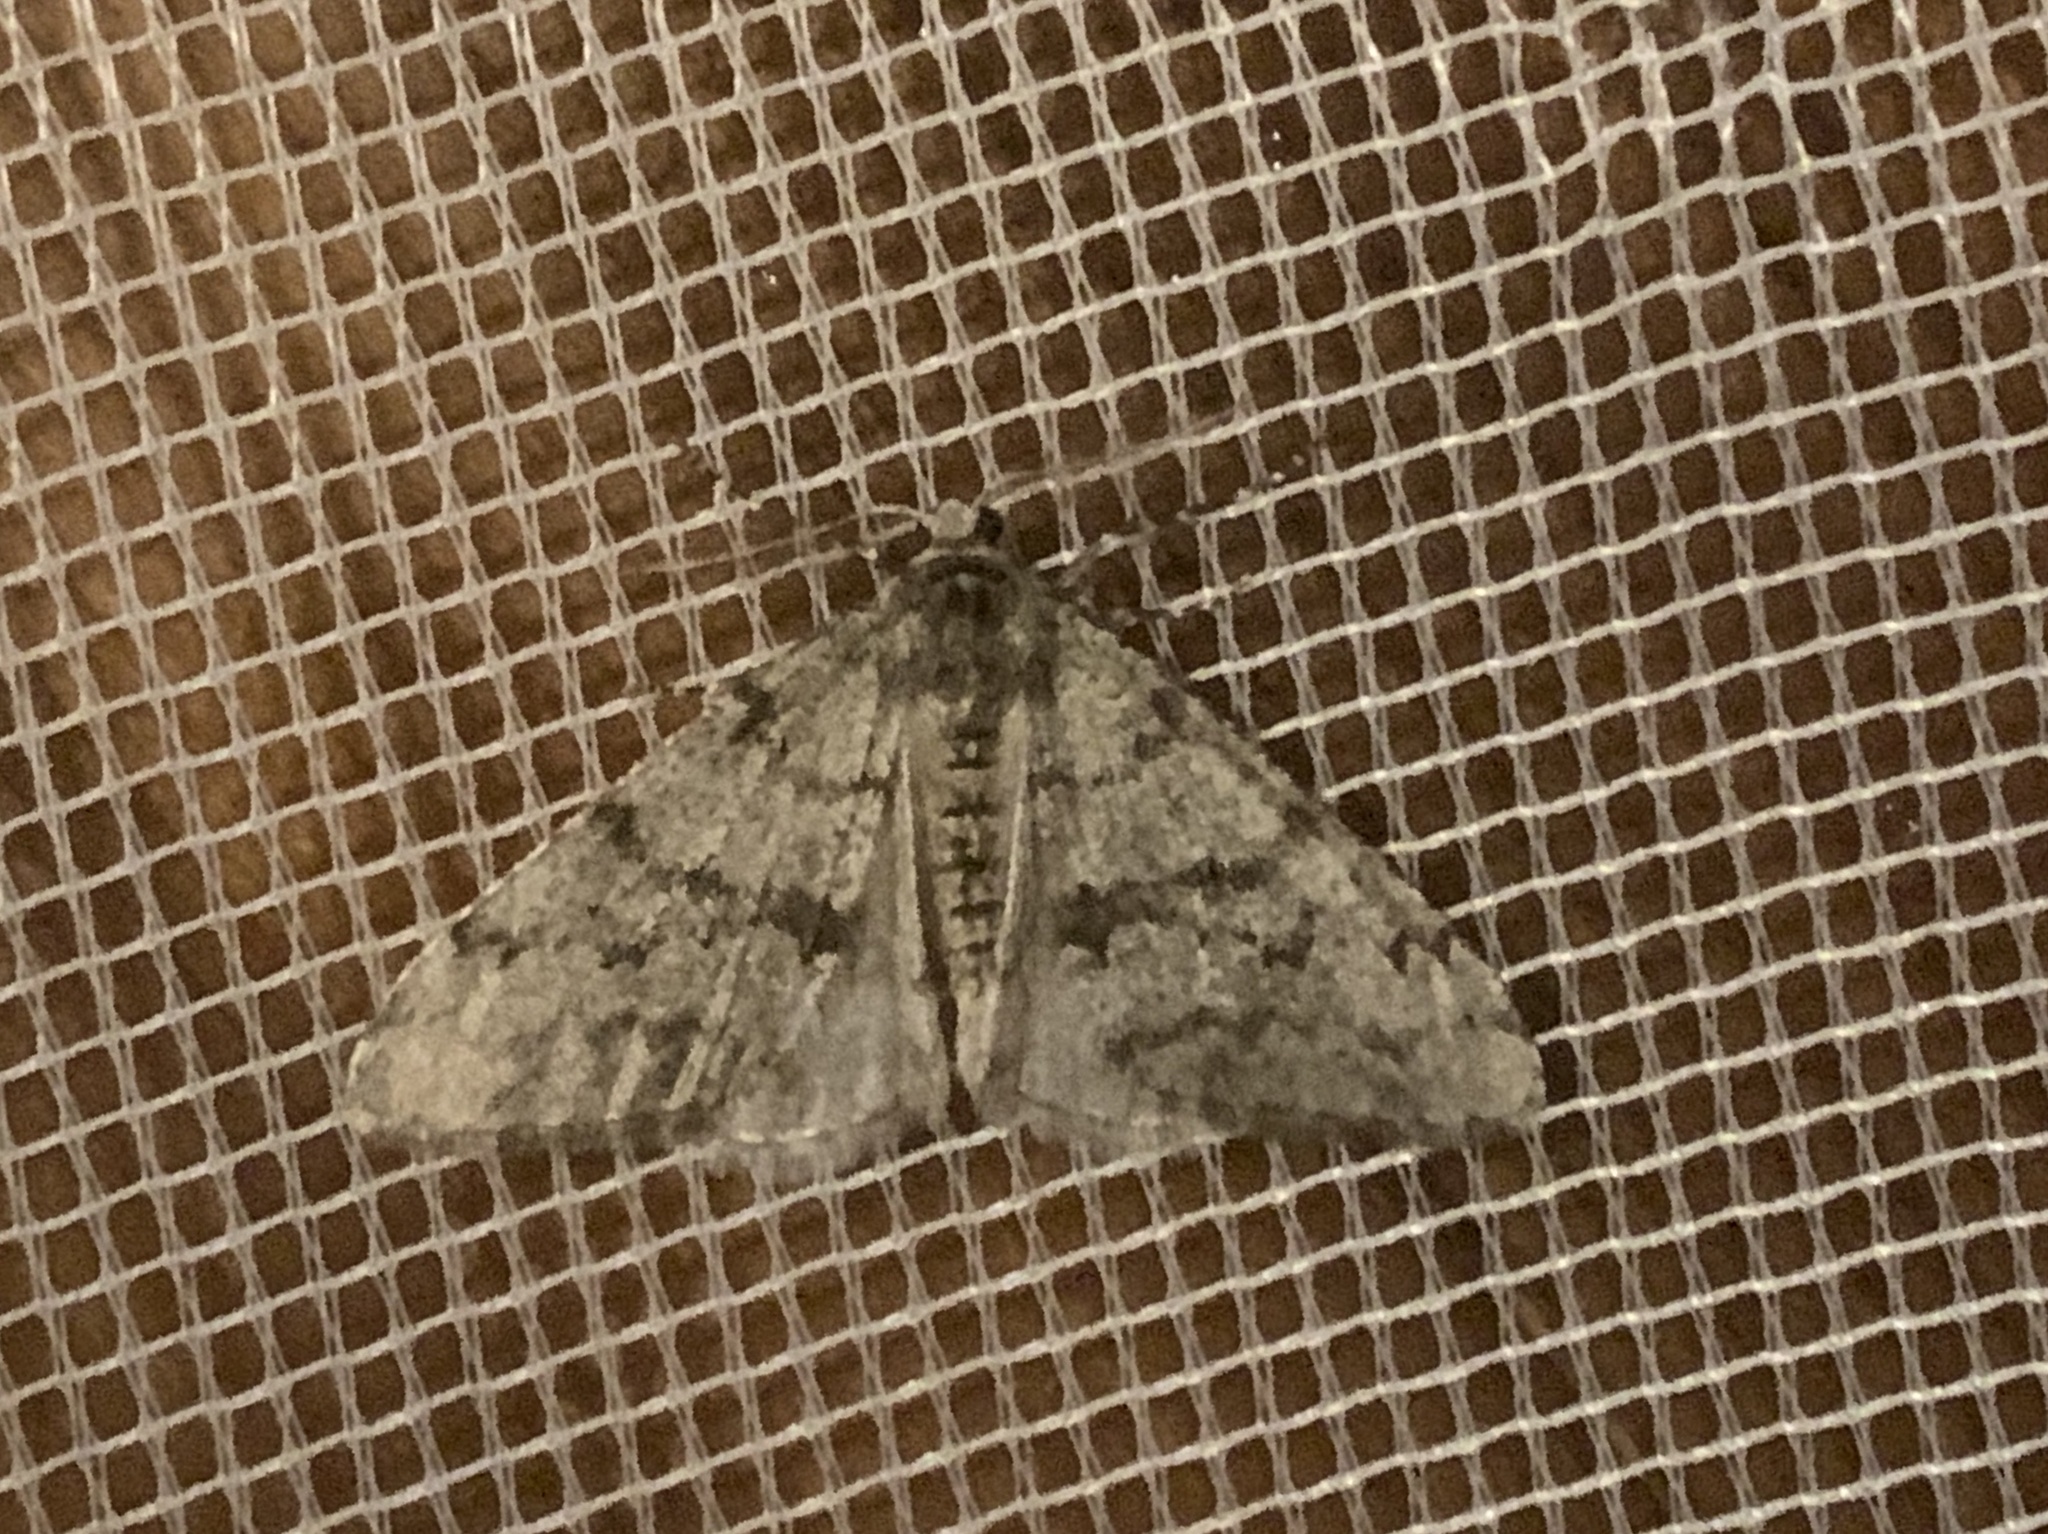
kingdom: Animalia
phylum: Arthropoda
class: Insecta
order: Lepidoptera
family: Geometridae
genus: Phigalia
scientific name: Phigalia strigataria
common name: Small phigalia
